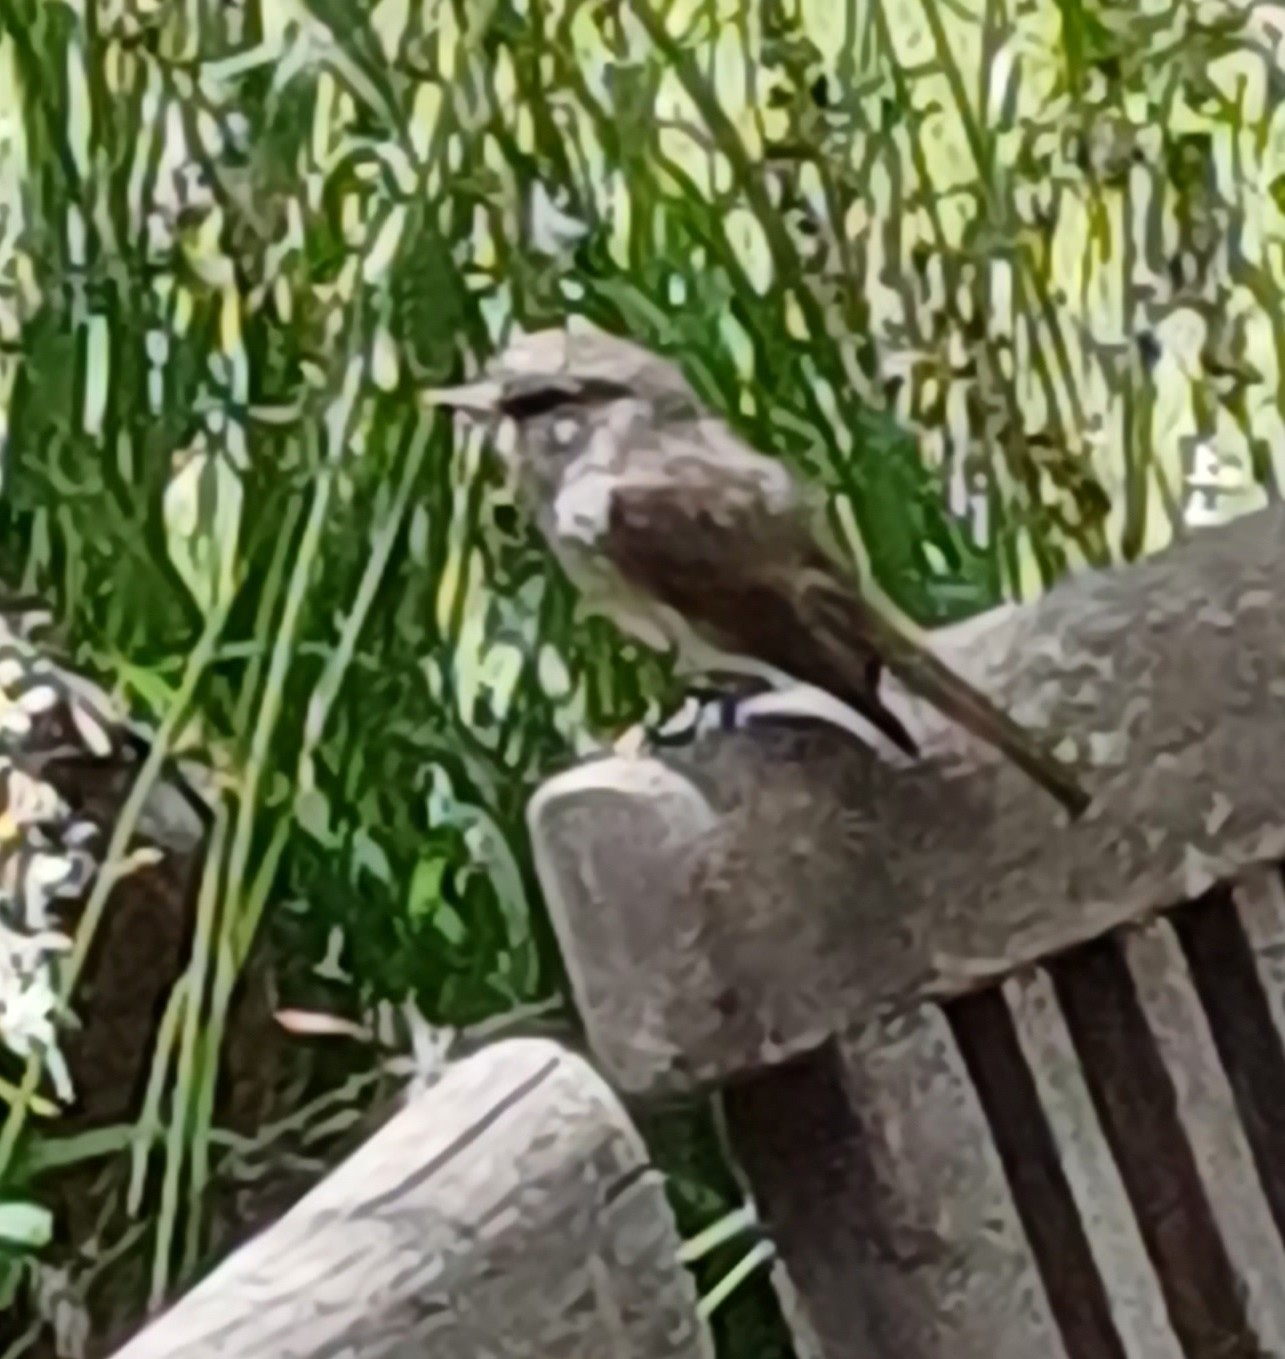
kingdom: Animalia
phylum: Chordata
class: Aves
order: Passeriformes
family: Muscicapidae
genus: Muscicapa
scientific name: Muscicapa adusta
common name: African dusky flycatcher
